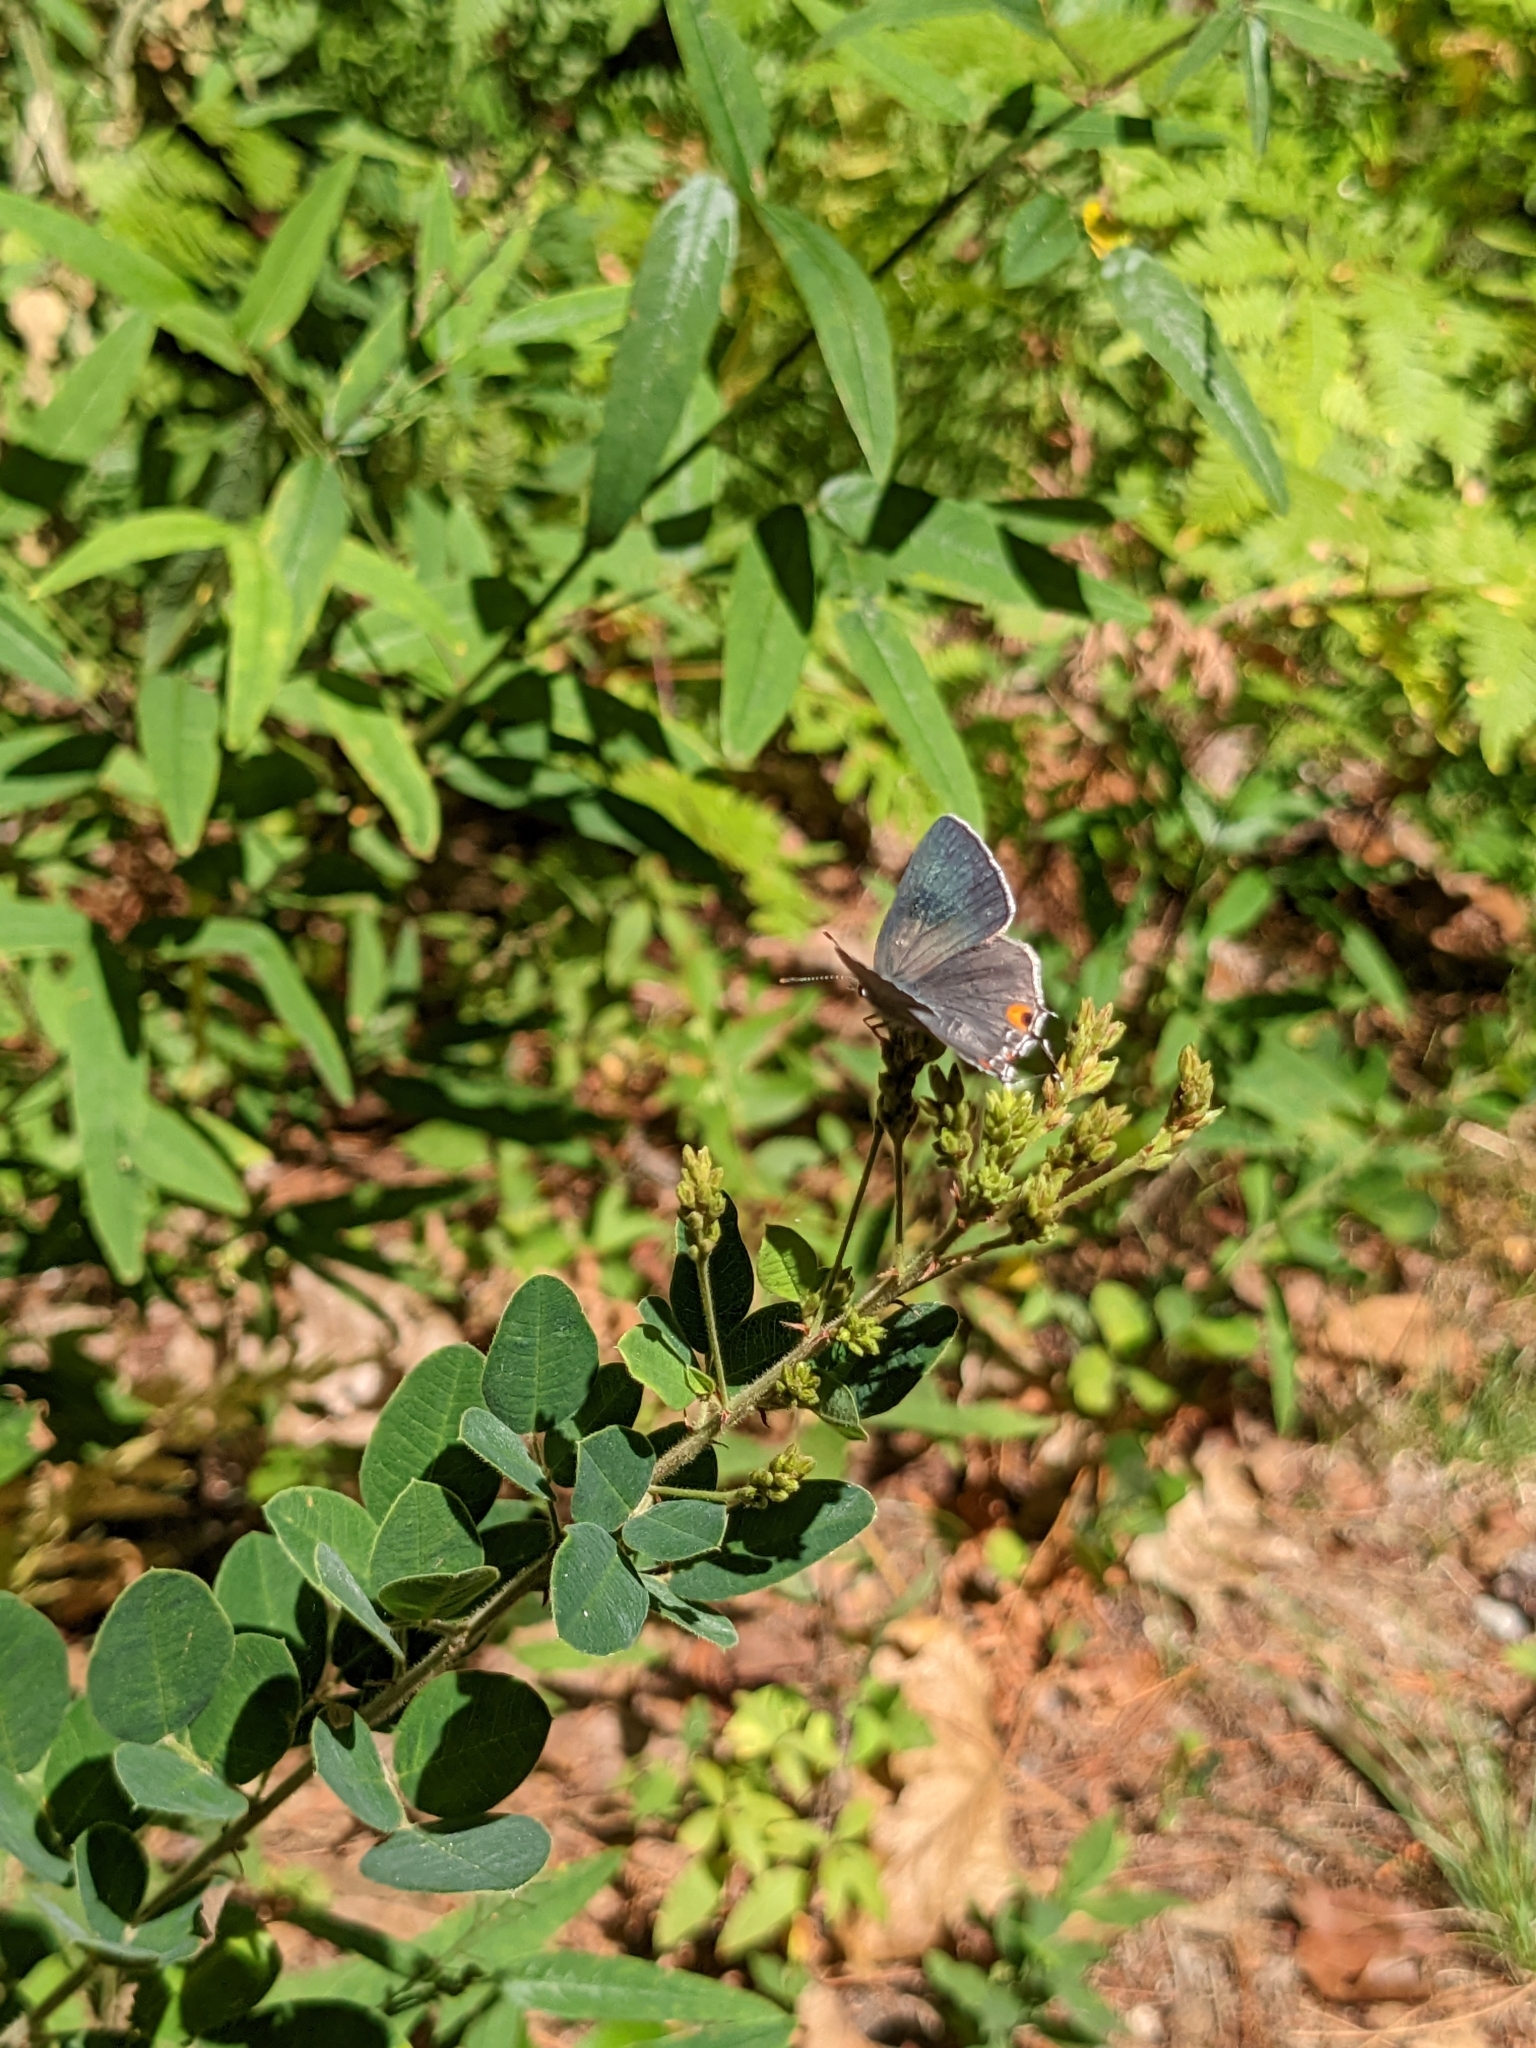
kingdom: Animalia
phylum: Arthropoda
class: Insecta
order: Lepidoptera
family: Lycaenidae
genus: Strymon
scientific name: Strymon melinus
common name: Gray hairstreak
